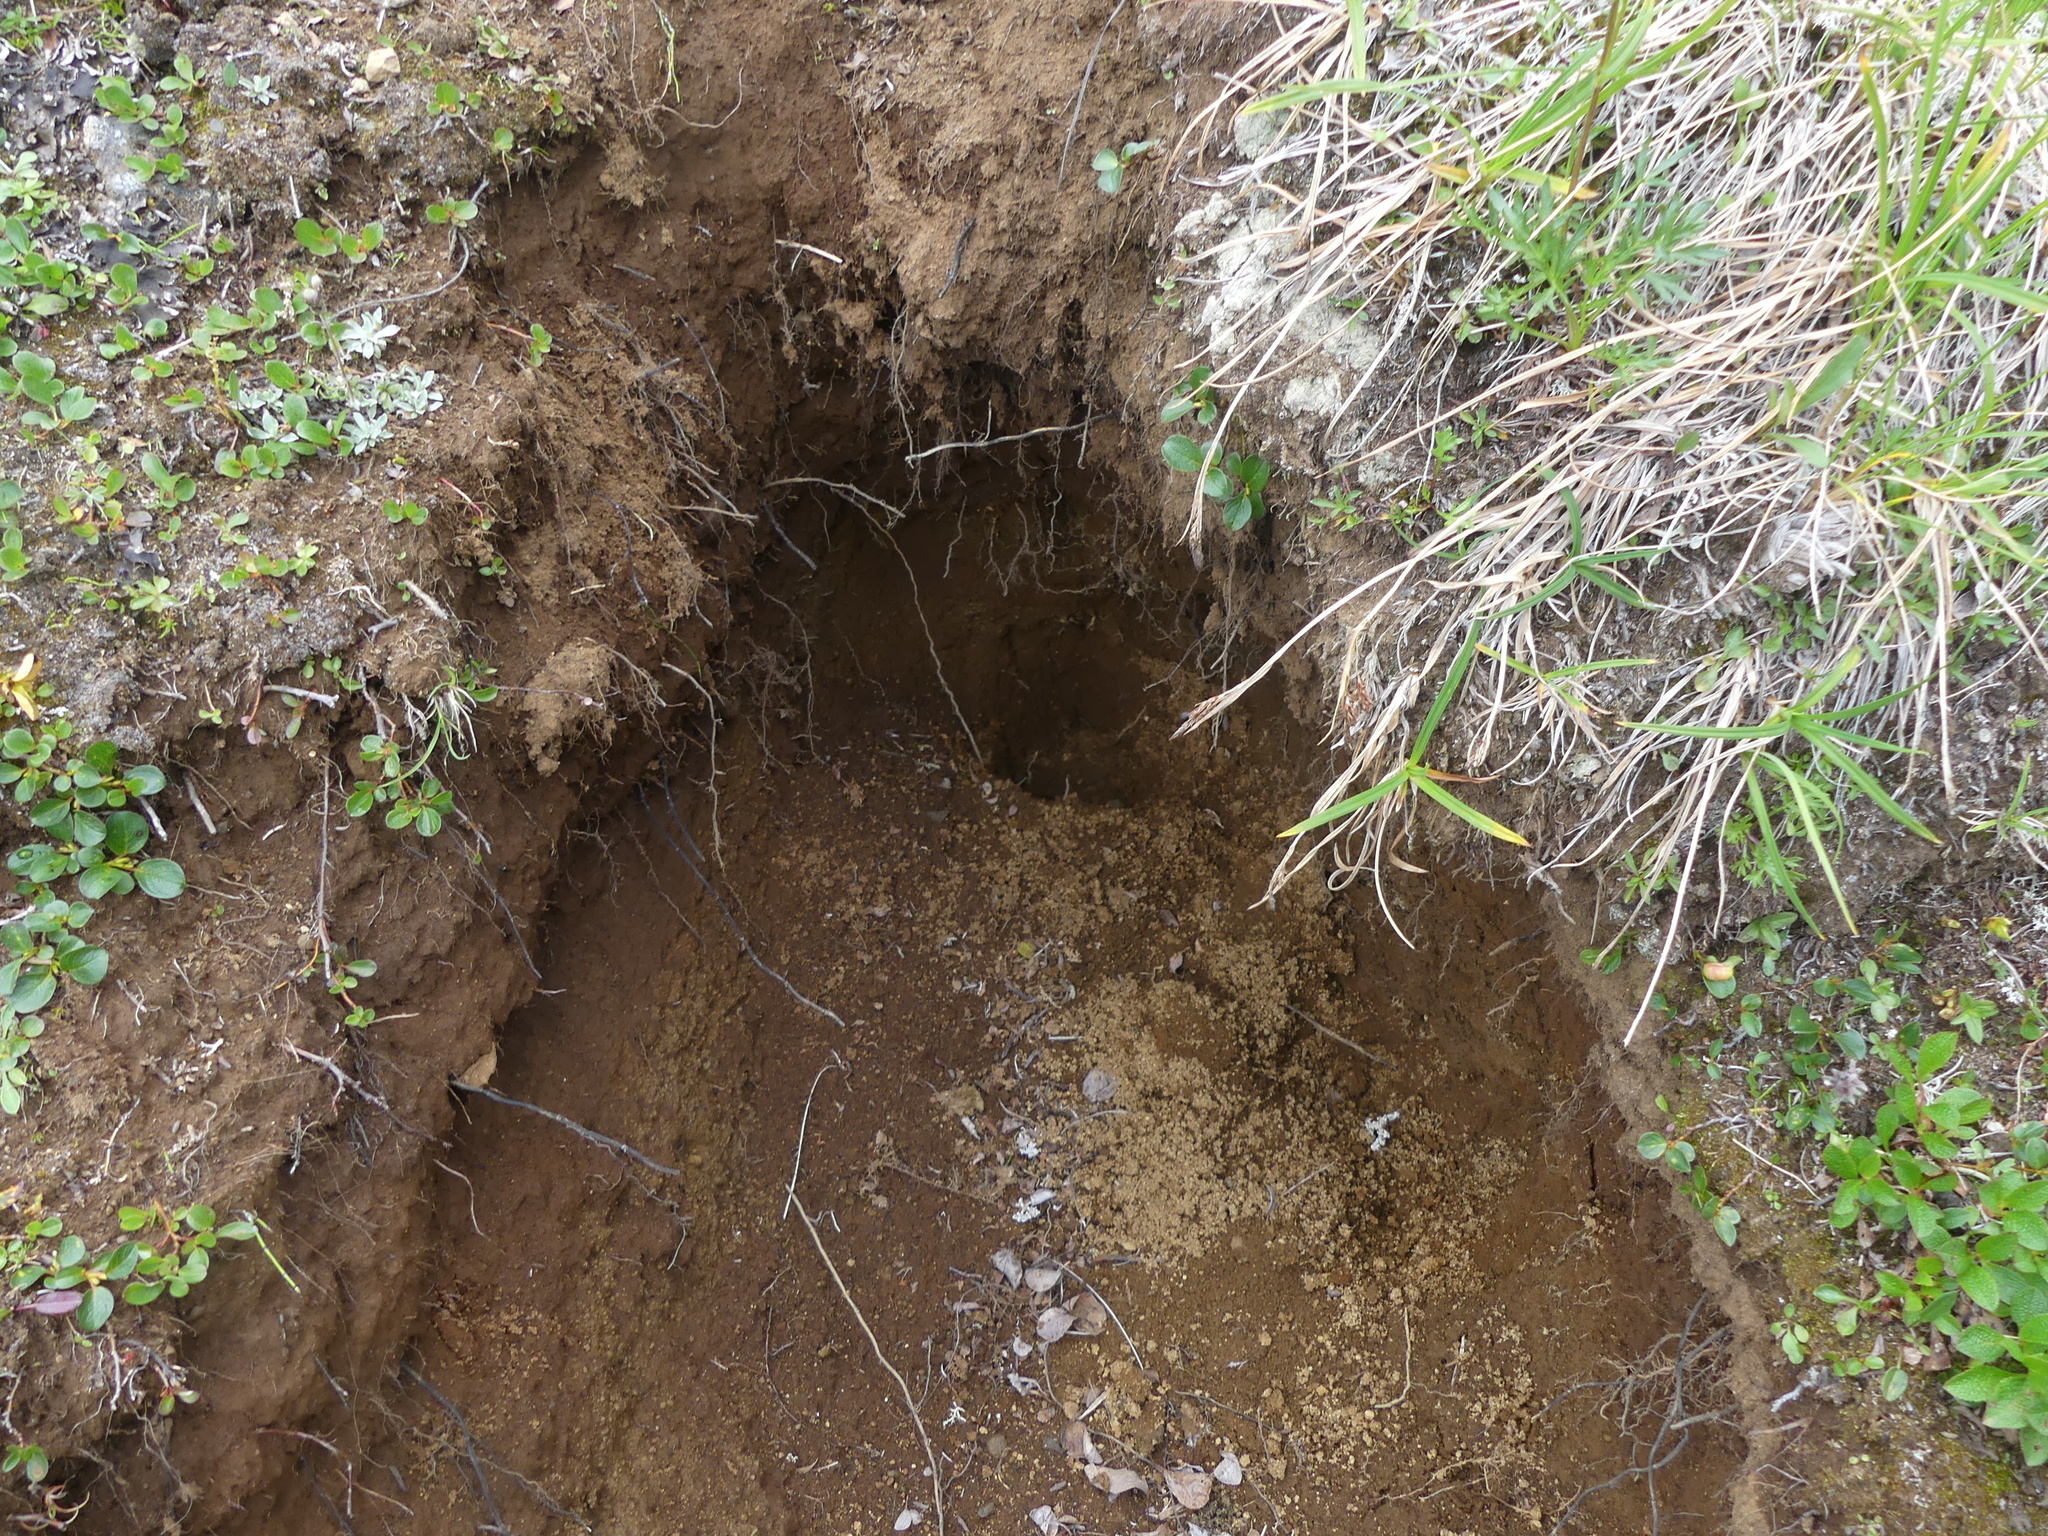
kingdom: Animalia
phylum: Chordata
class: Mammalia
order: Carnivora
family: Ursidae
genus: Ursus
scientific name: Ursus arctos
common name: Brown bear
